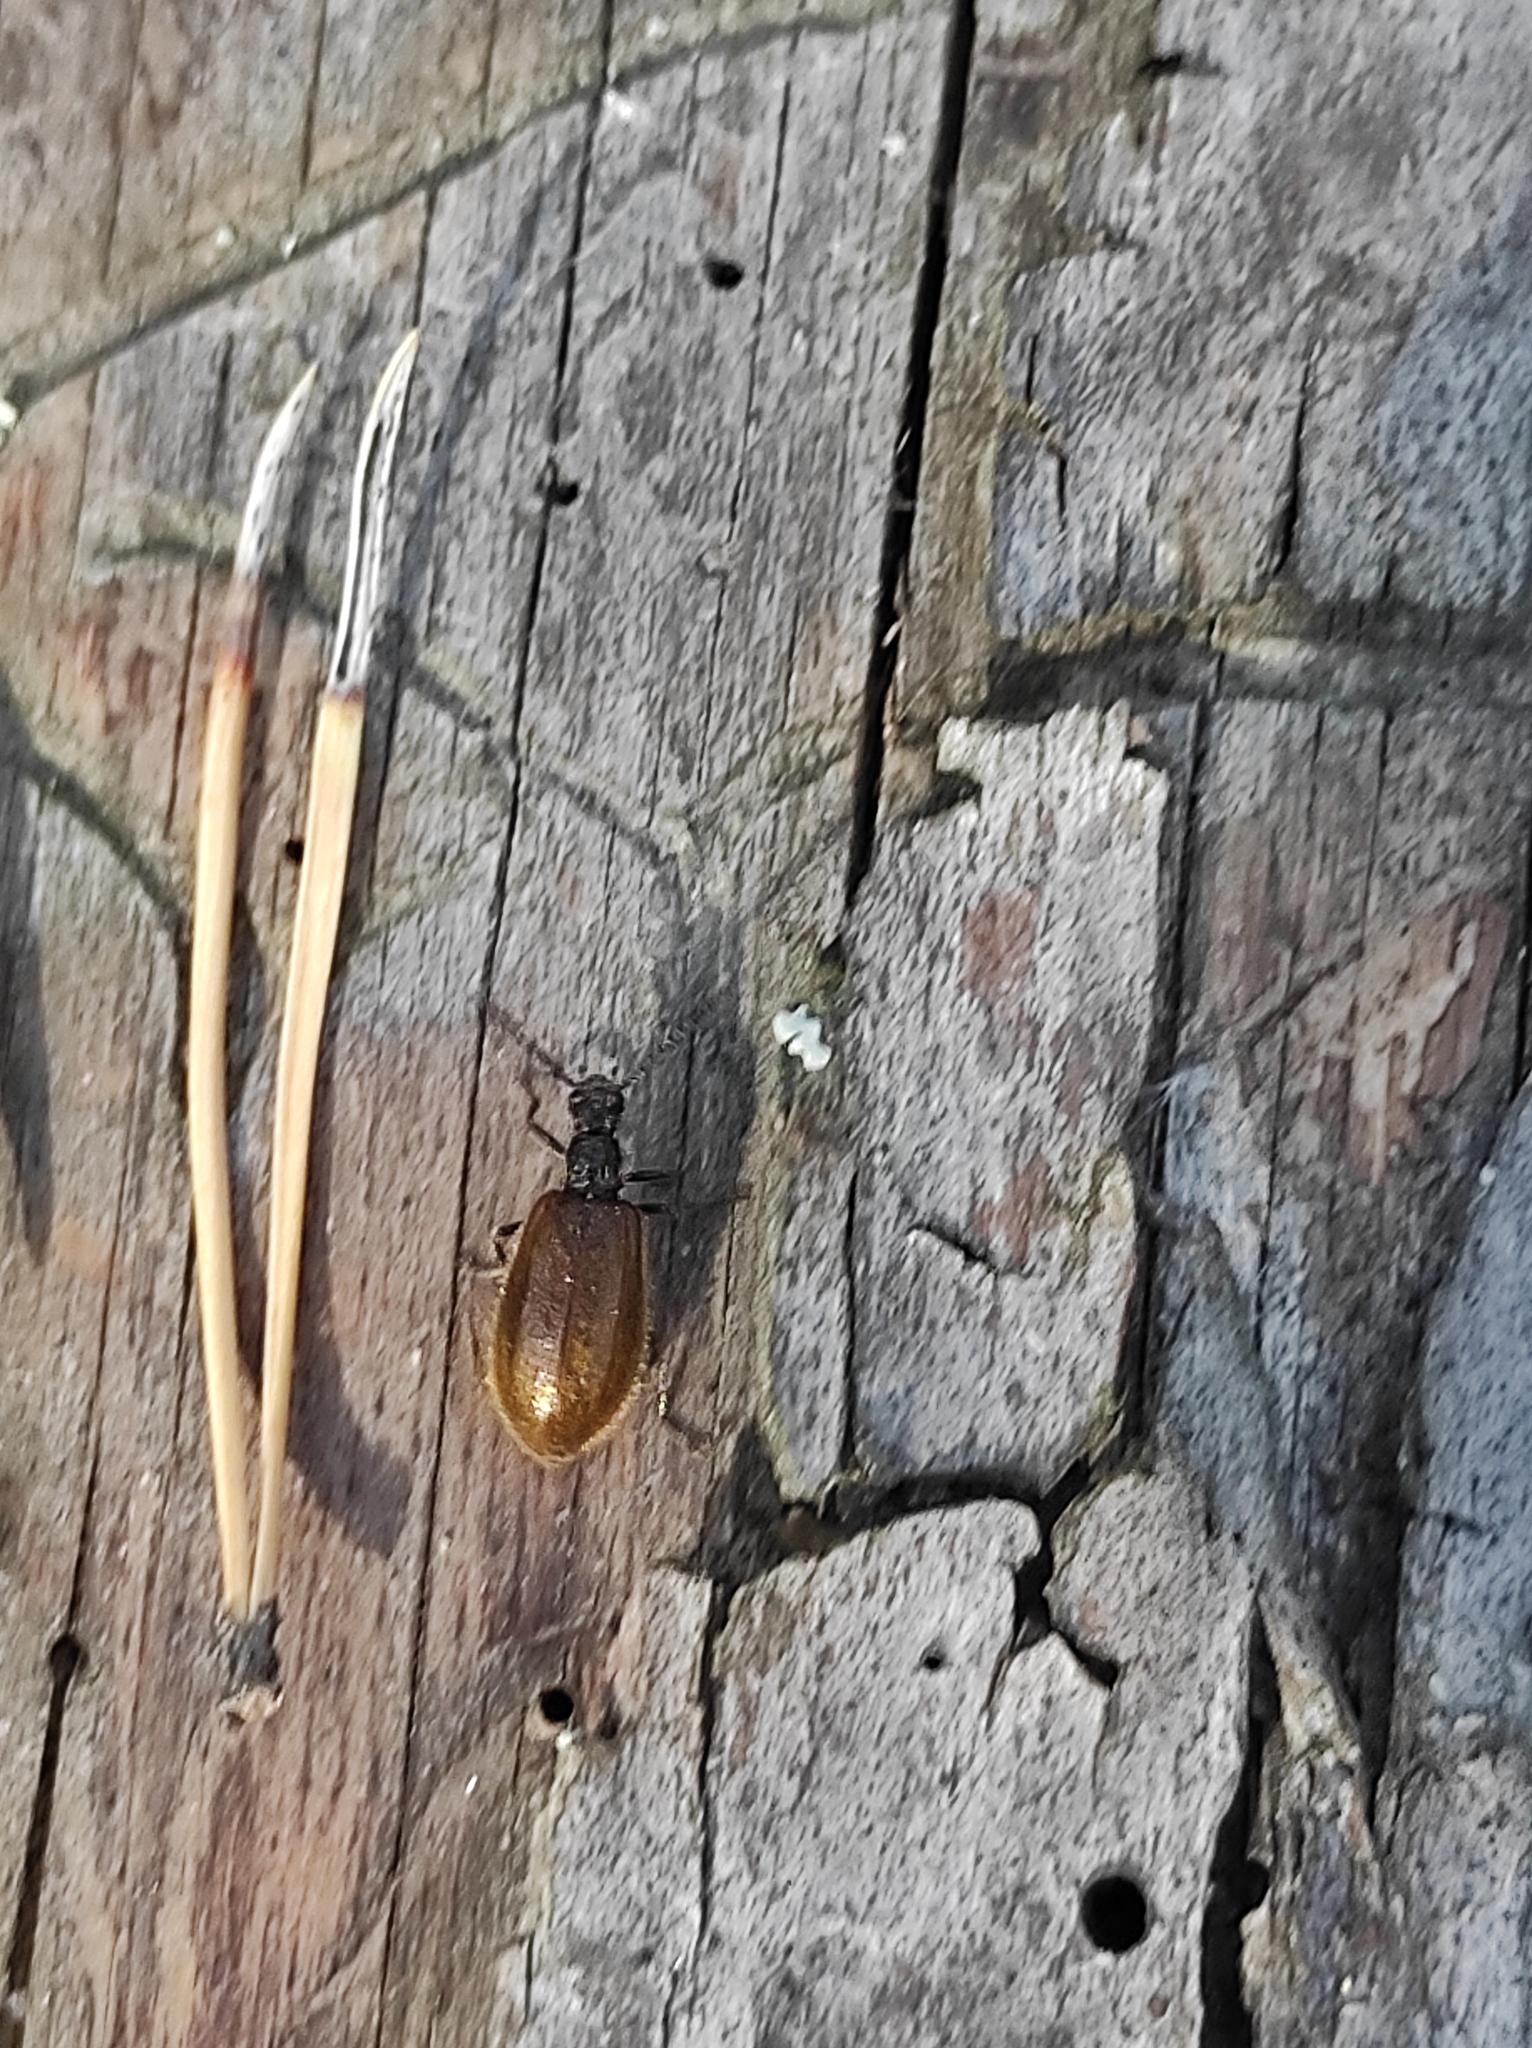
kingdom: Animalia
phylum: Arthropoda
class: Insecta
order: Coleoptera
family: Tenebrionidae
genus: Lagria
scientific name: Lagria hirta
